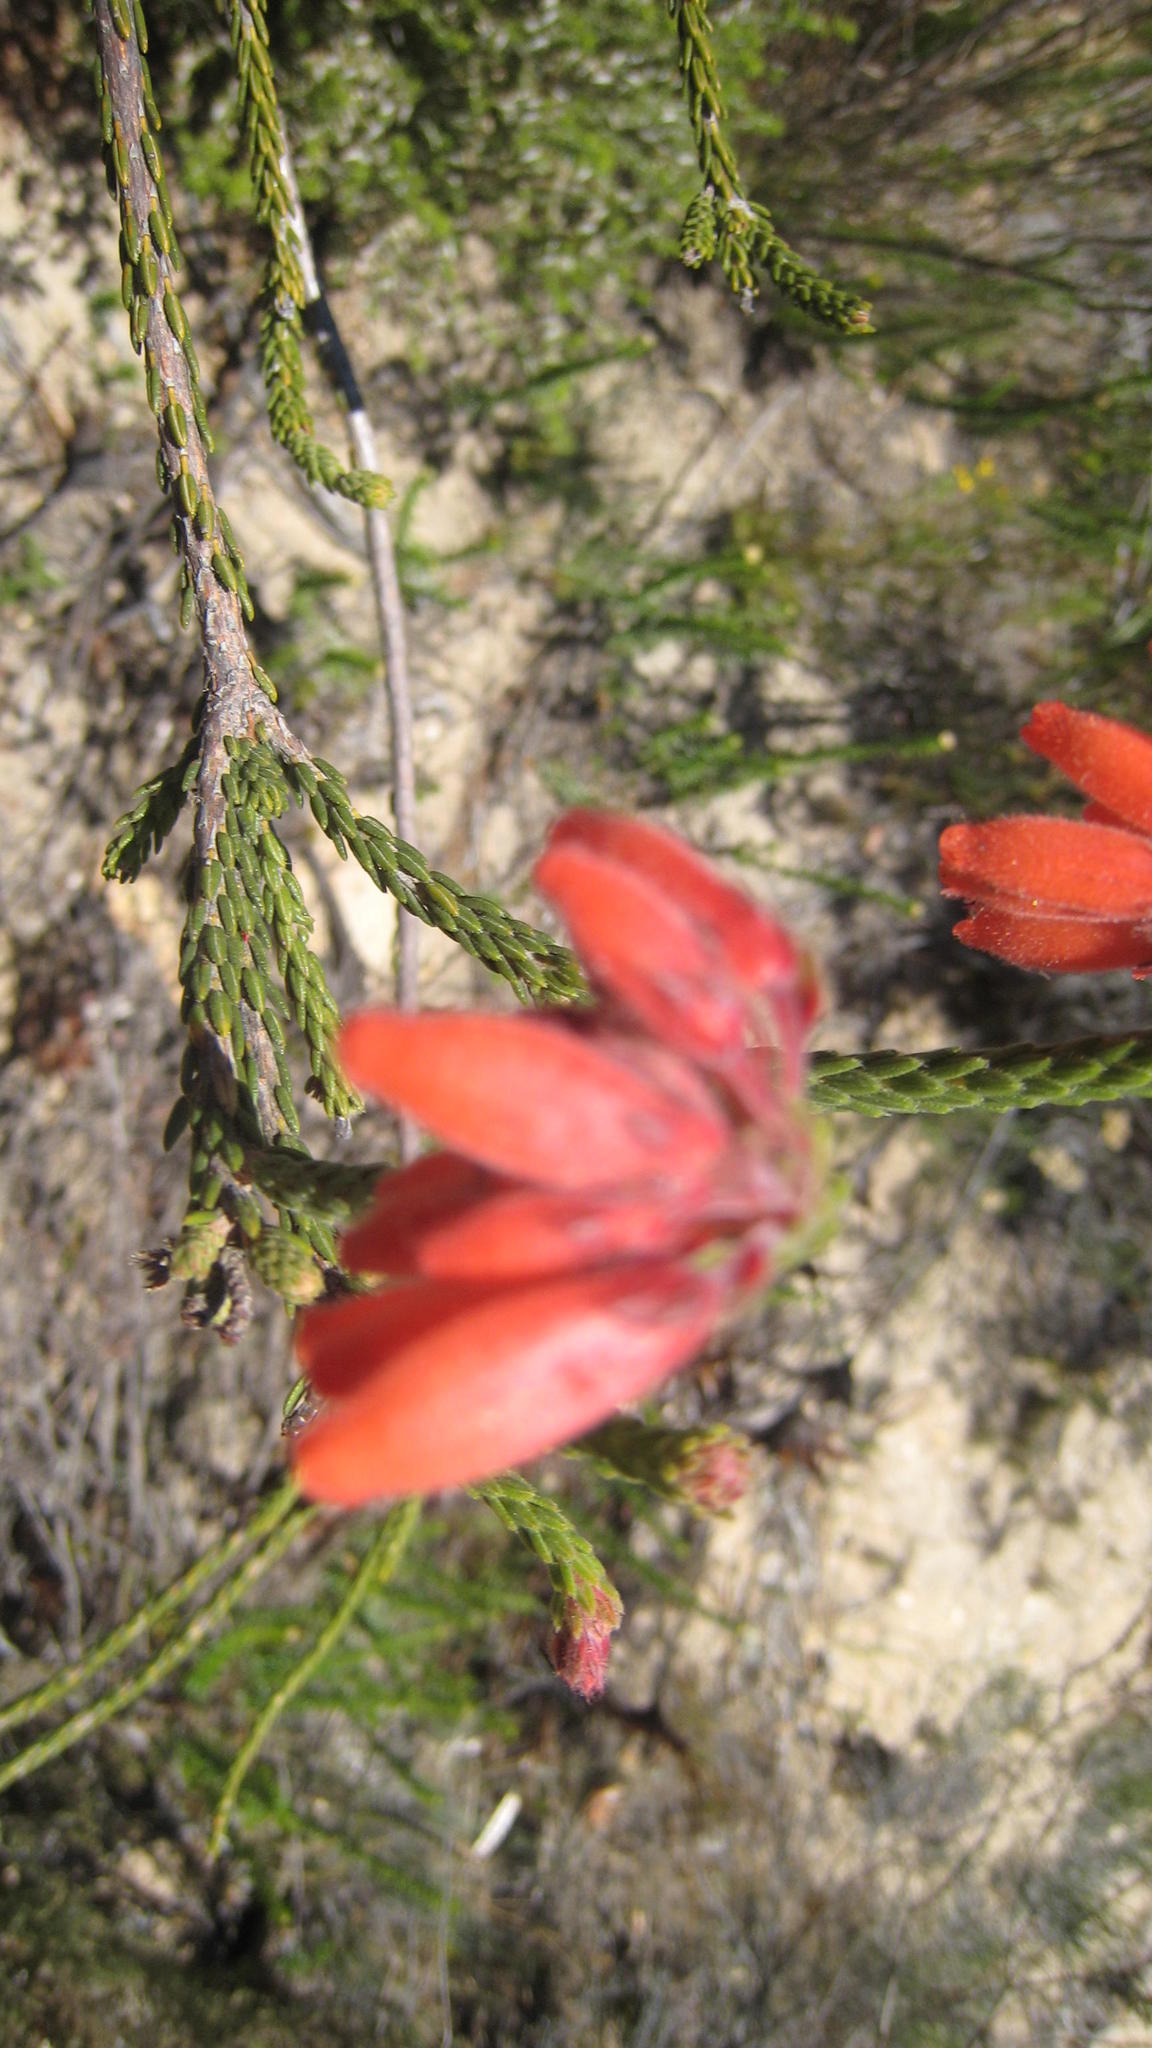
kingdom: Plantae
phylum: Tracheophyta
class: Magnoliopsida
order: Ericales
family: Ericaceae
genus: Erica
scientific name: Erica cerinthoides
